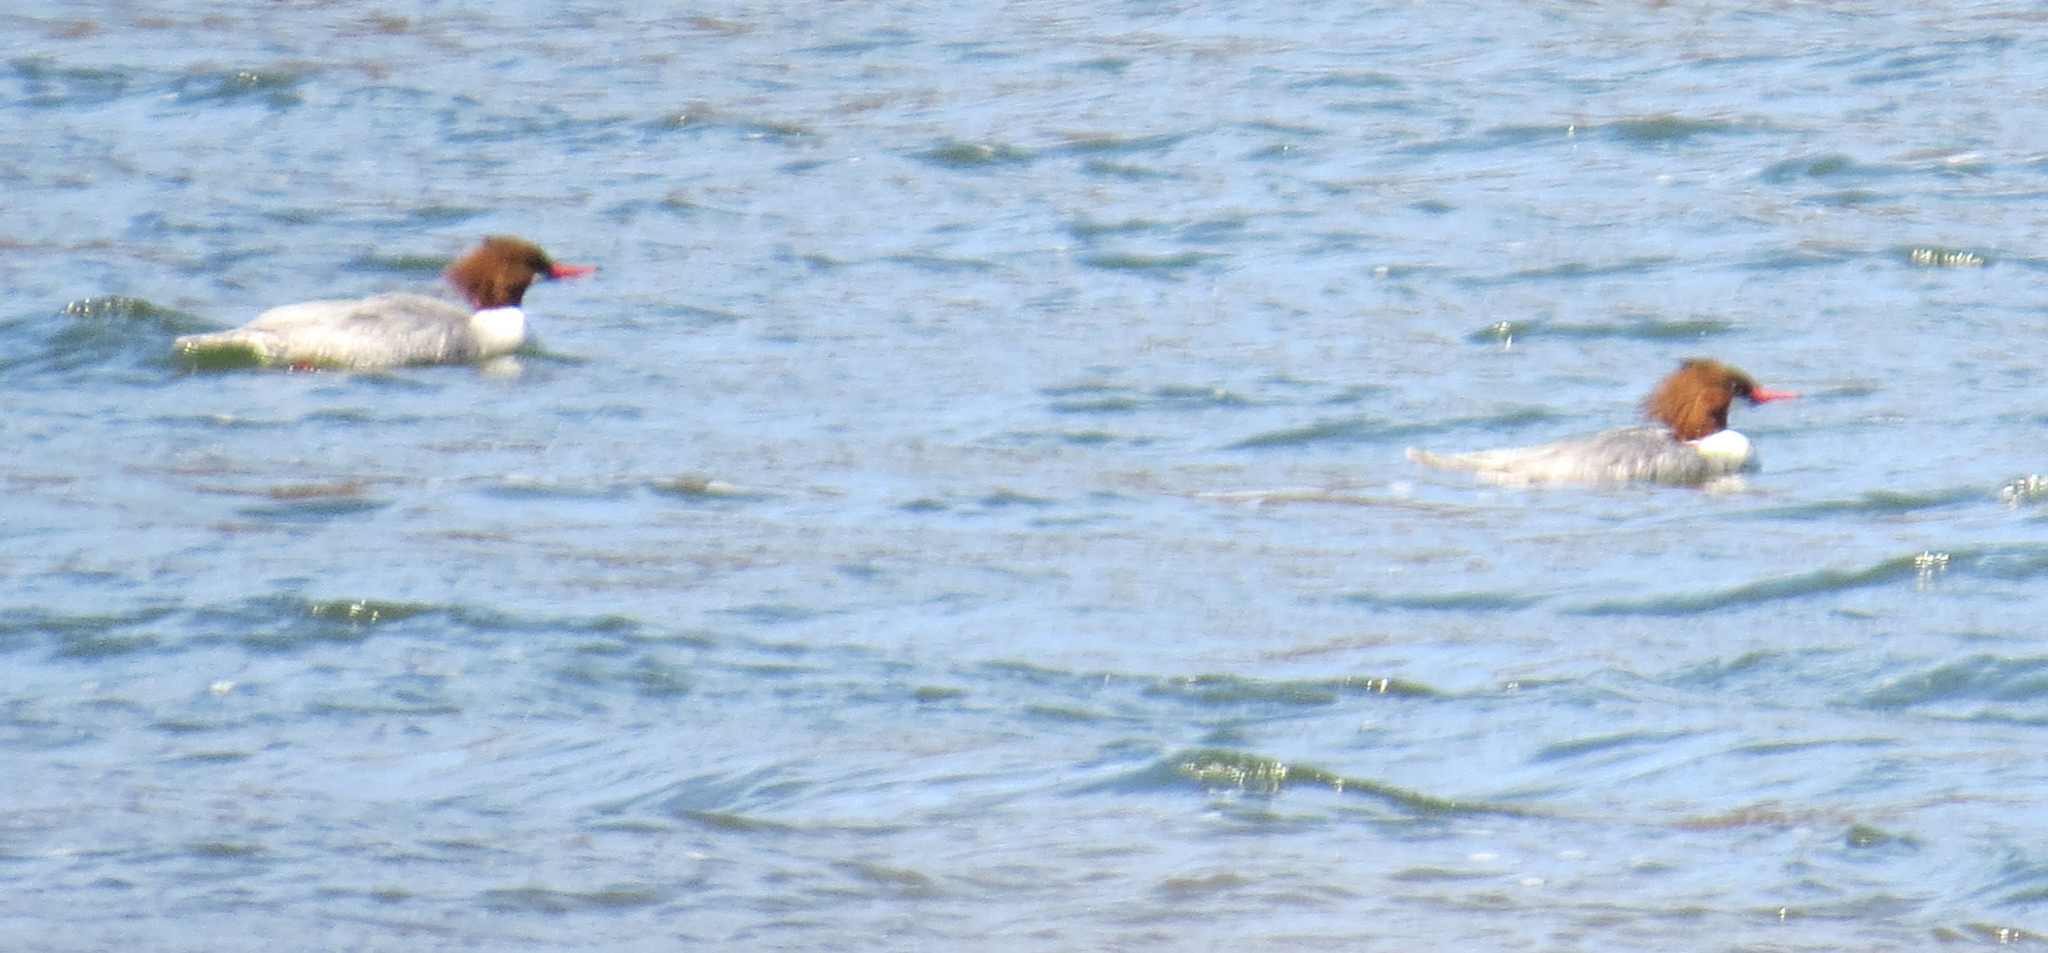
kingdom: Animalia
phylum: Chordata
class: Aves
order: Anseriformes
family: Anatidae
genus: Mergus
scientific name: Mergus merganser
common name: Common merganser
